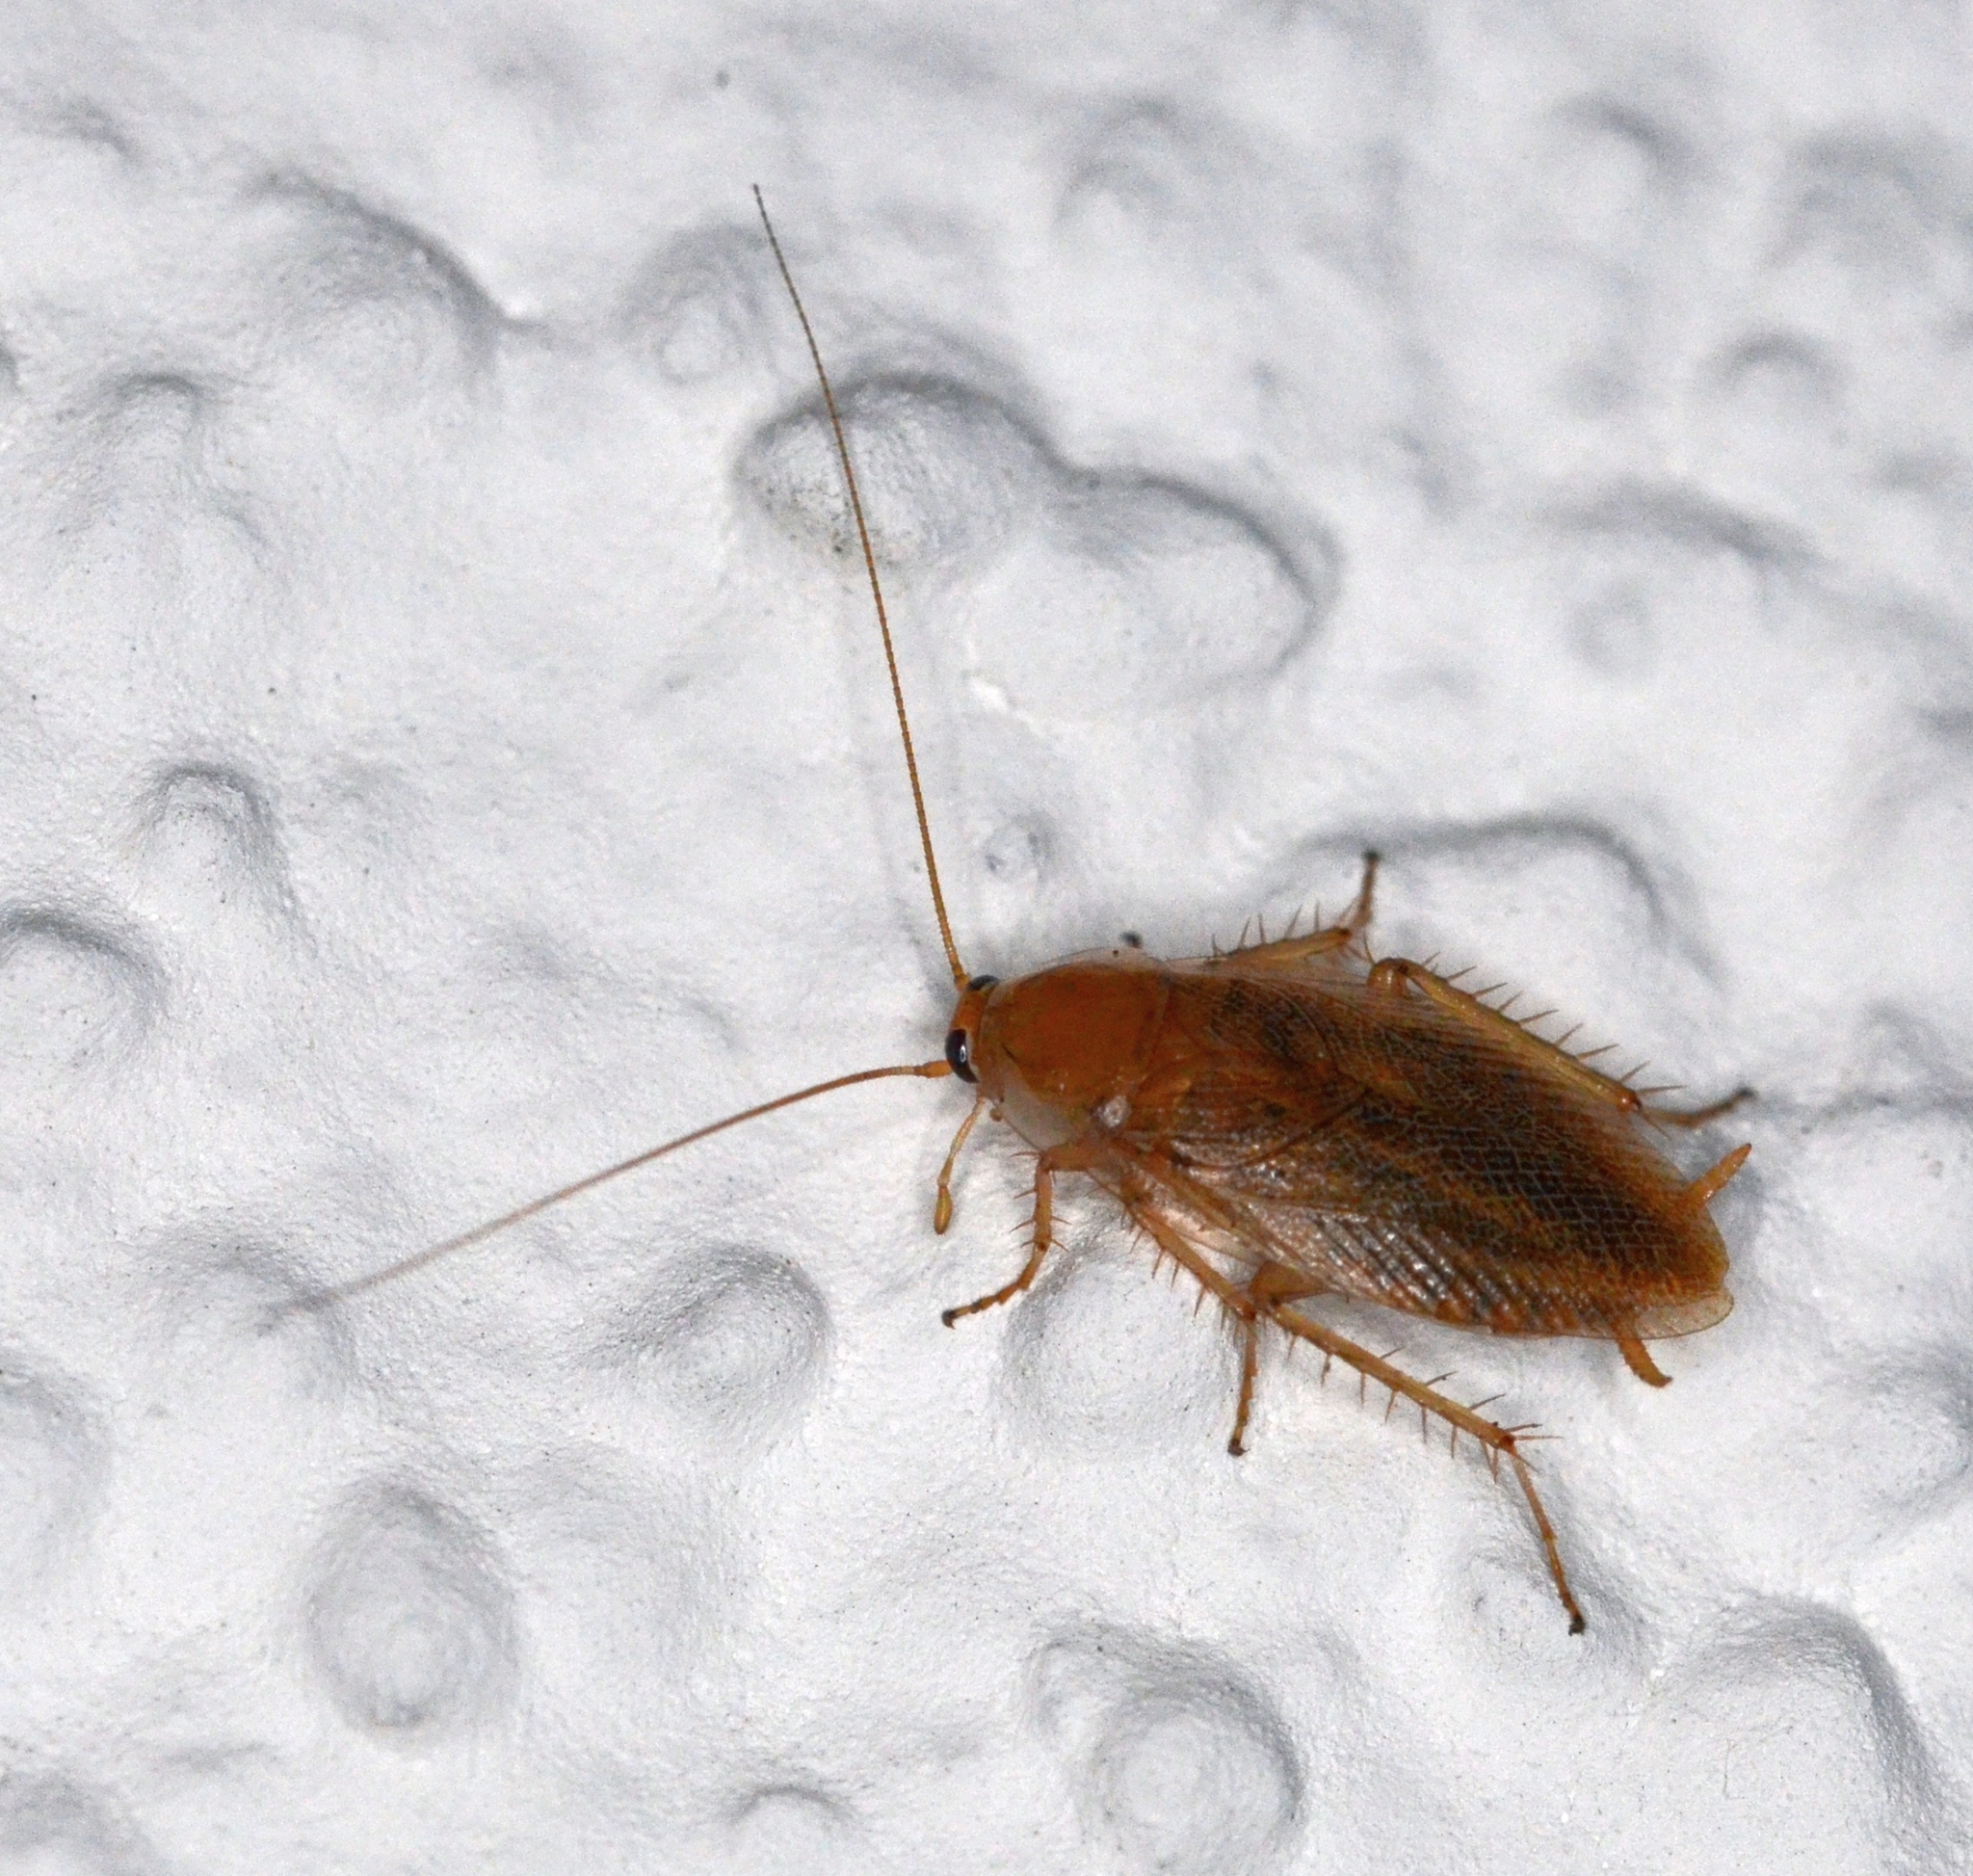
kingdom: Animalia
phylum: Arthropoda
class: Insecta
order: Blattodea
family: Ectobiidae
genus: Ectobius
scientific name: Ectobius vittiventris
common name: Garden cockroach
